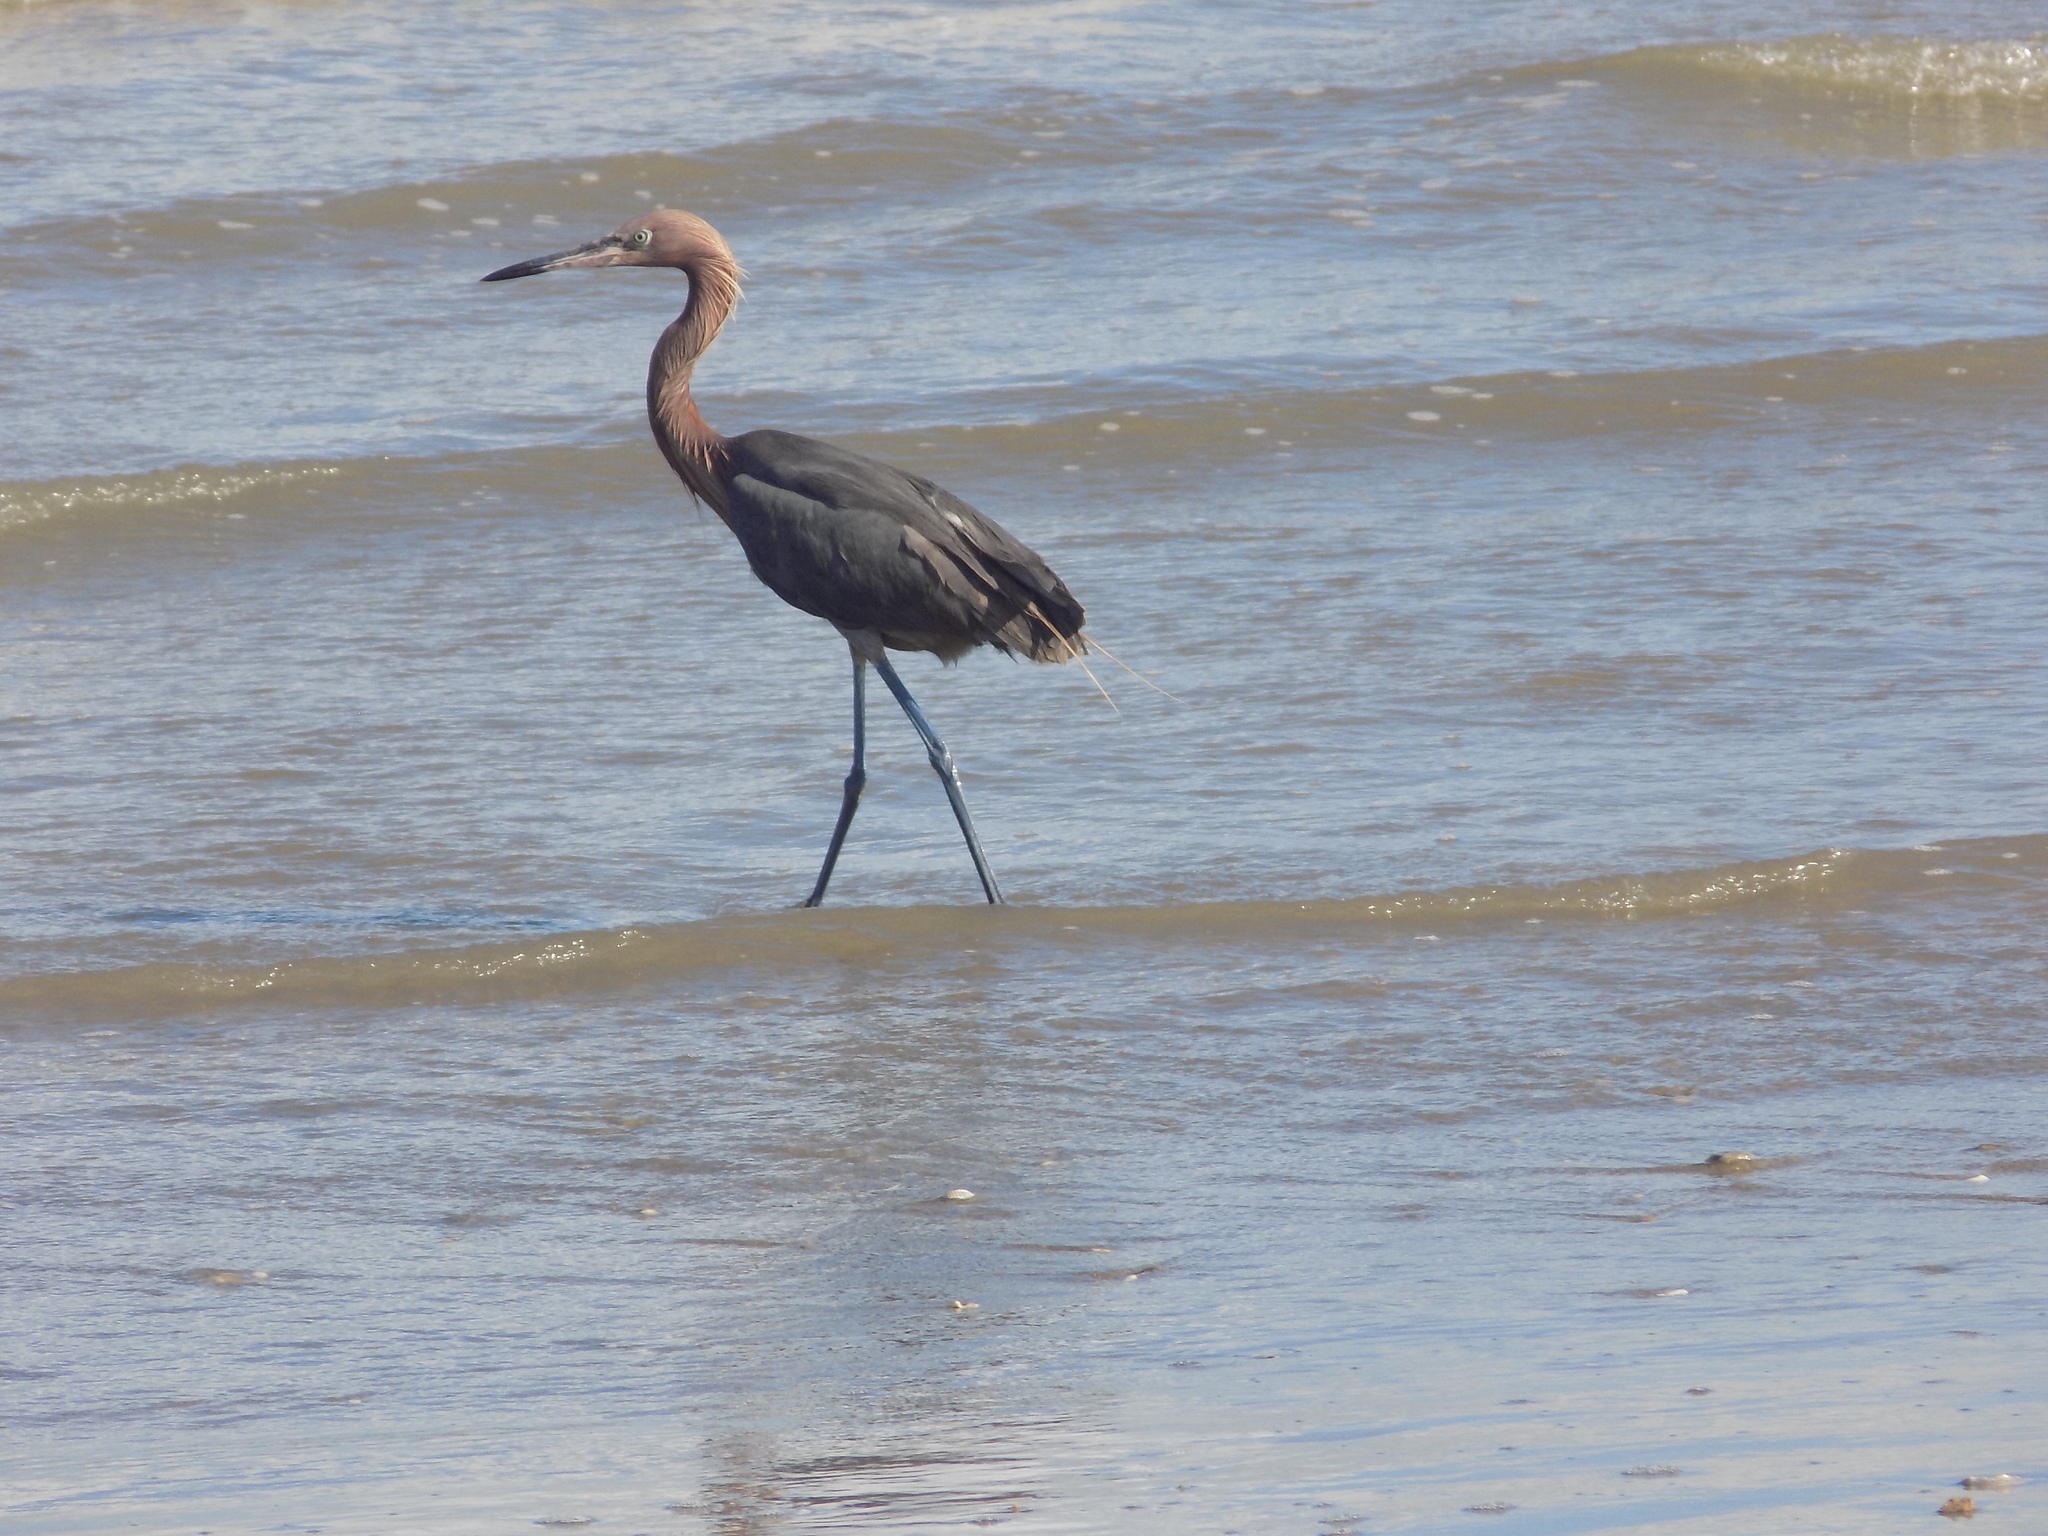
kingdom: Animalia
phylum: Chordata
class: Aves
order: Pelecaniformes
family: Ardeidae
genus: Egretta
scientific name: Egretta rufescens
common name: Reddish egret
